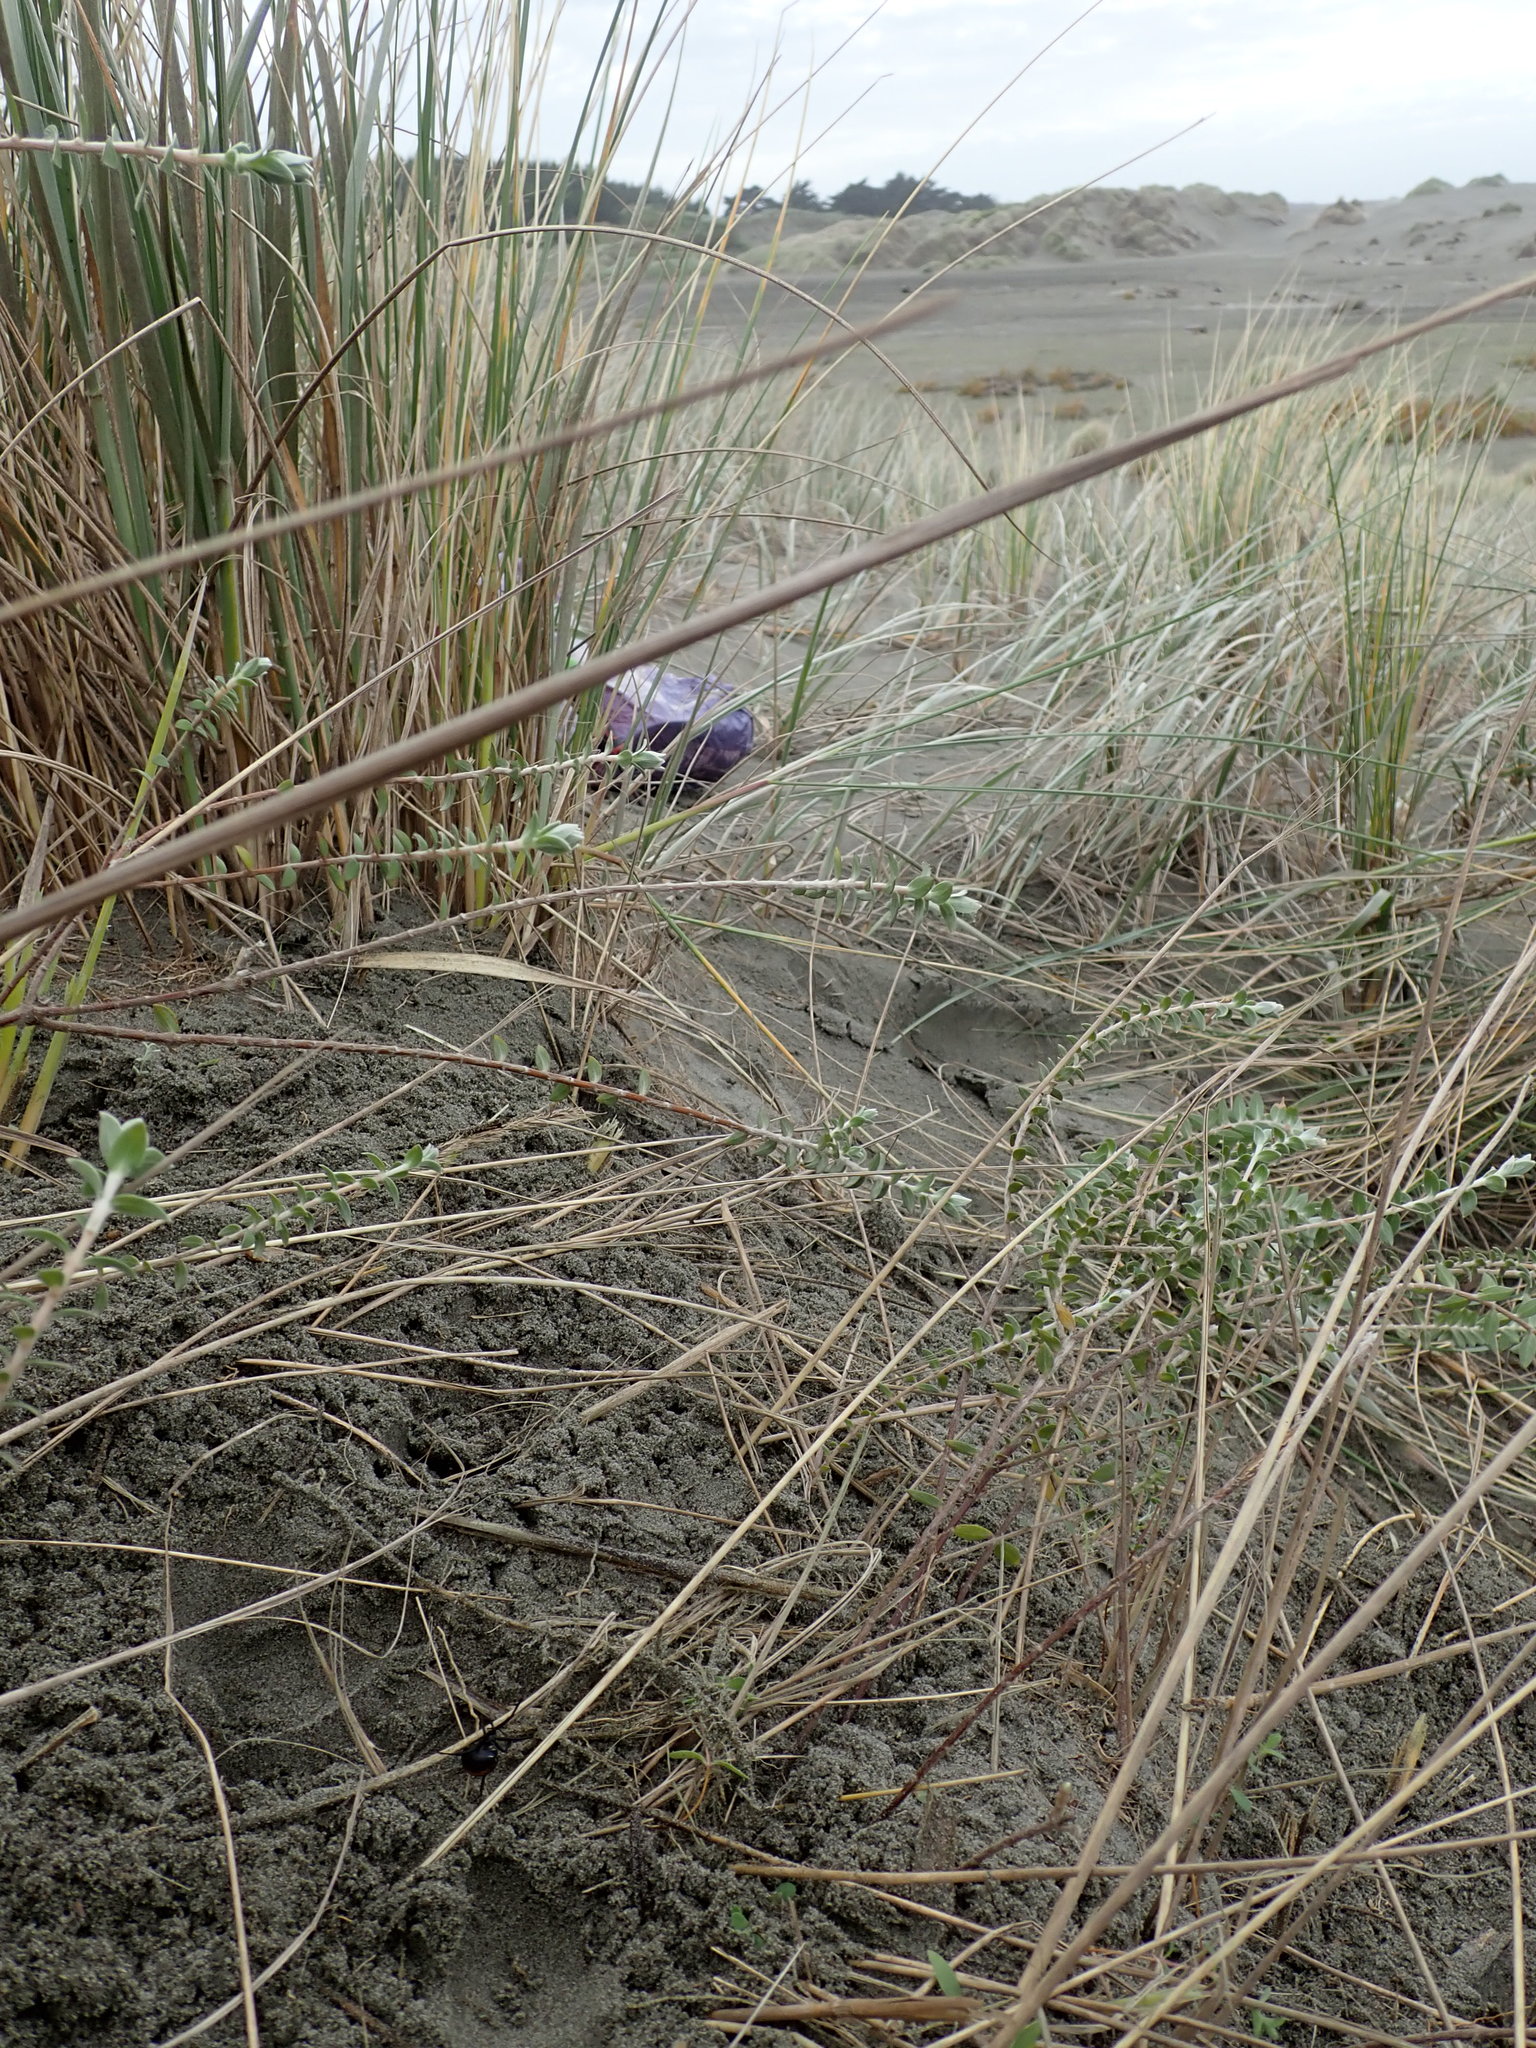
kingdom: Animalia
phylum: Arthropoda
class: Arachnida
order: Araneae
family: Theridiidae
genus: Latrodectus
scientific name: Latrodectus katipo
